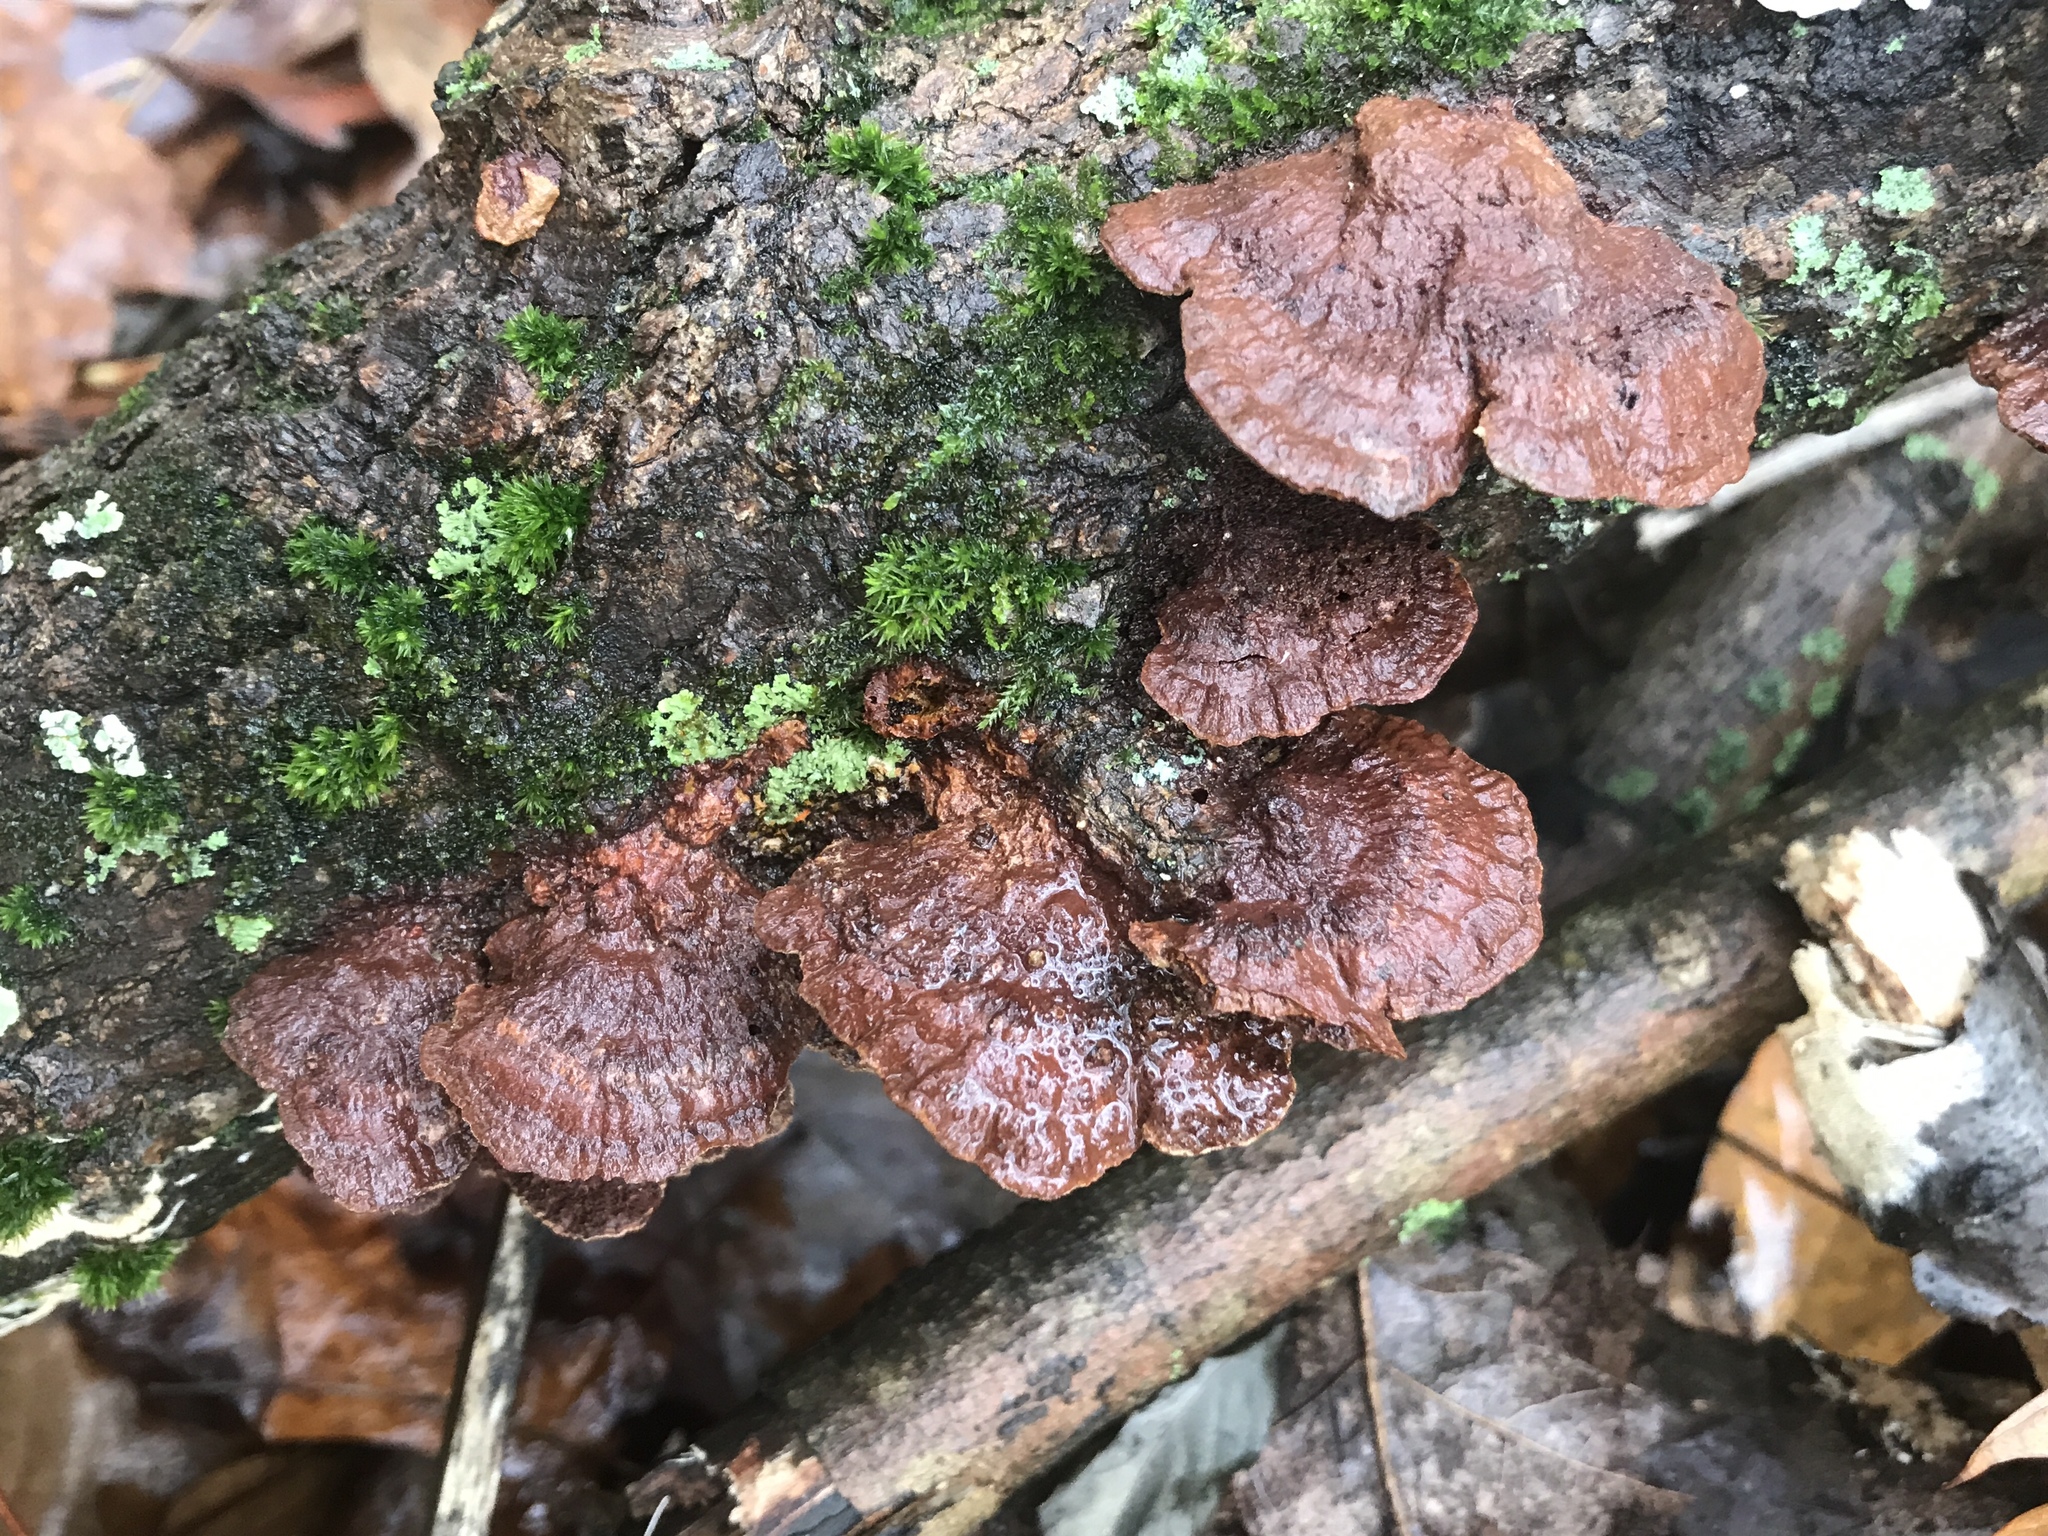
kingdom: Fungi
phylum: Basidiomycota
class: Agaricomycetes
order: Hymenochaetales
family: Hymenochaetaceae
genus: Phellinus
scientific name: Phellinus gilvus
